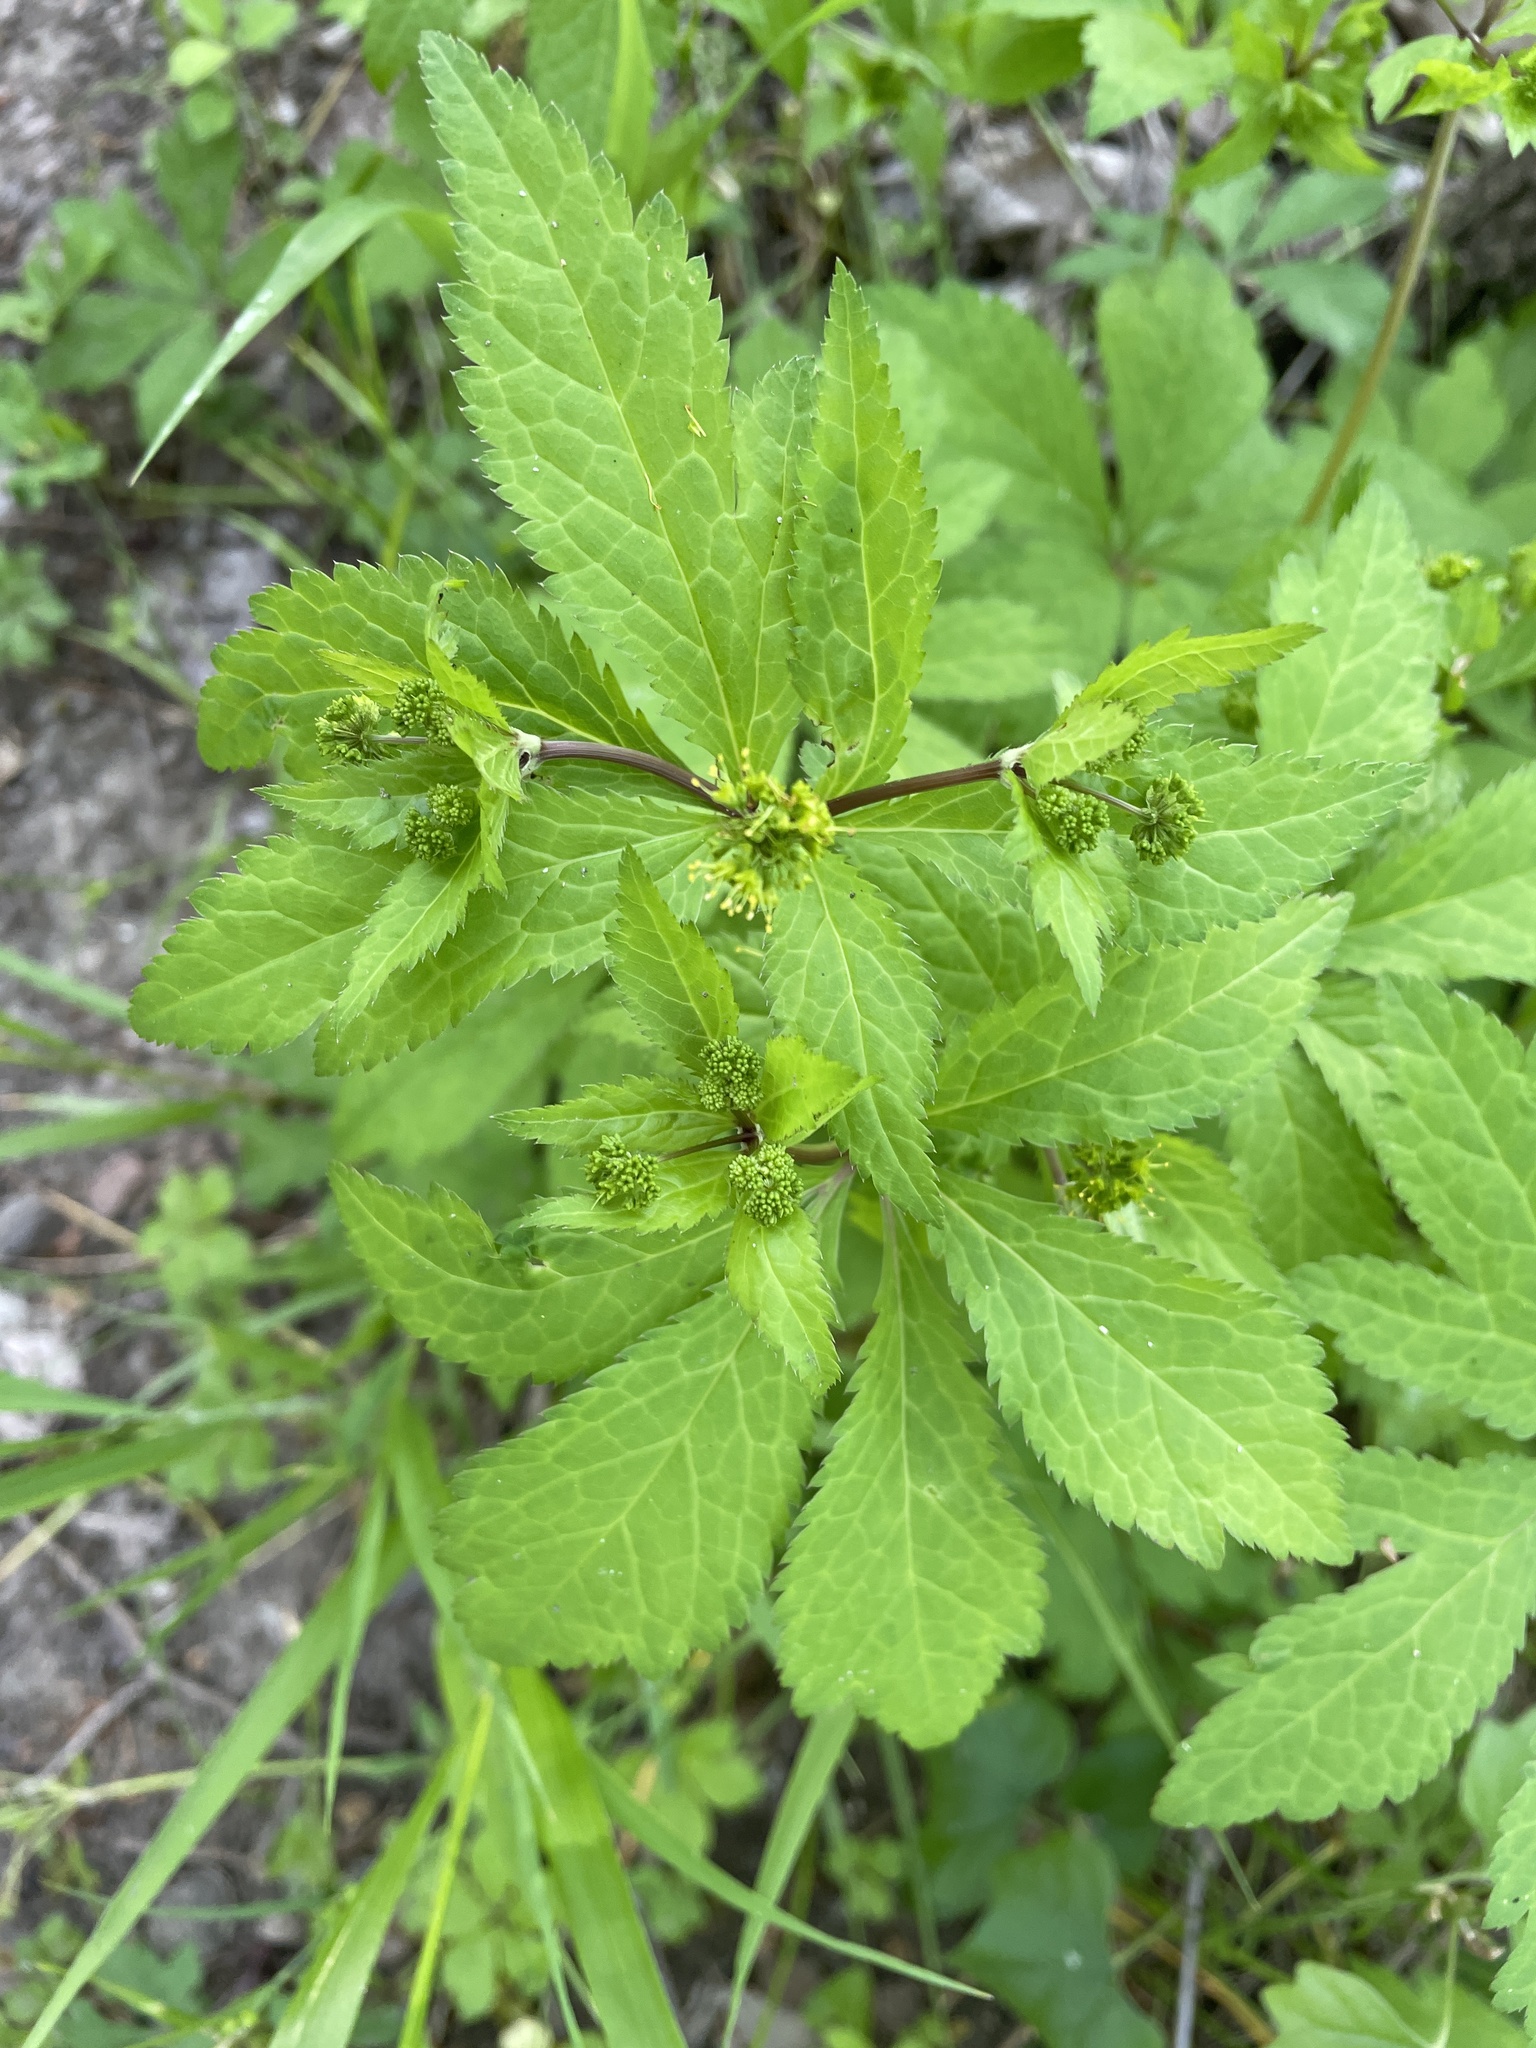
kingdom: Plantae
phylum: Tracheophyta
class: Magnoliopsida
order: Apiales
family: Apiaceae
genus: Sanicula
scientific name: Sanicula odorata
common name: Cluster sanicle
